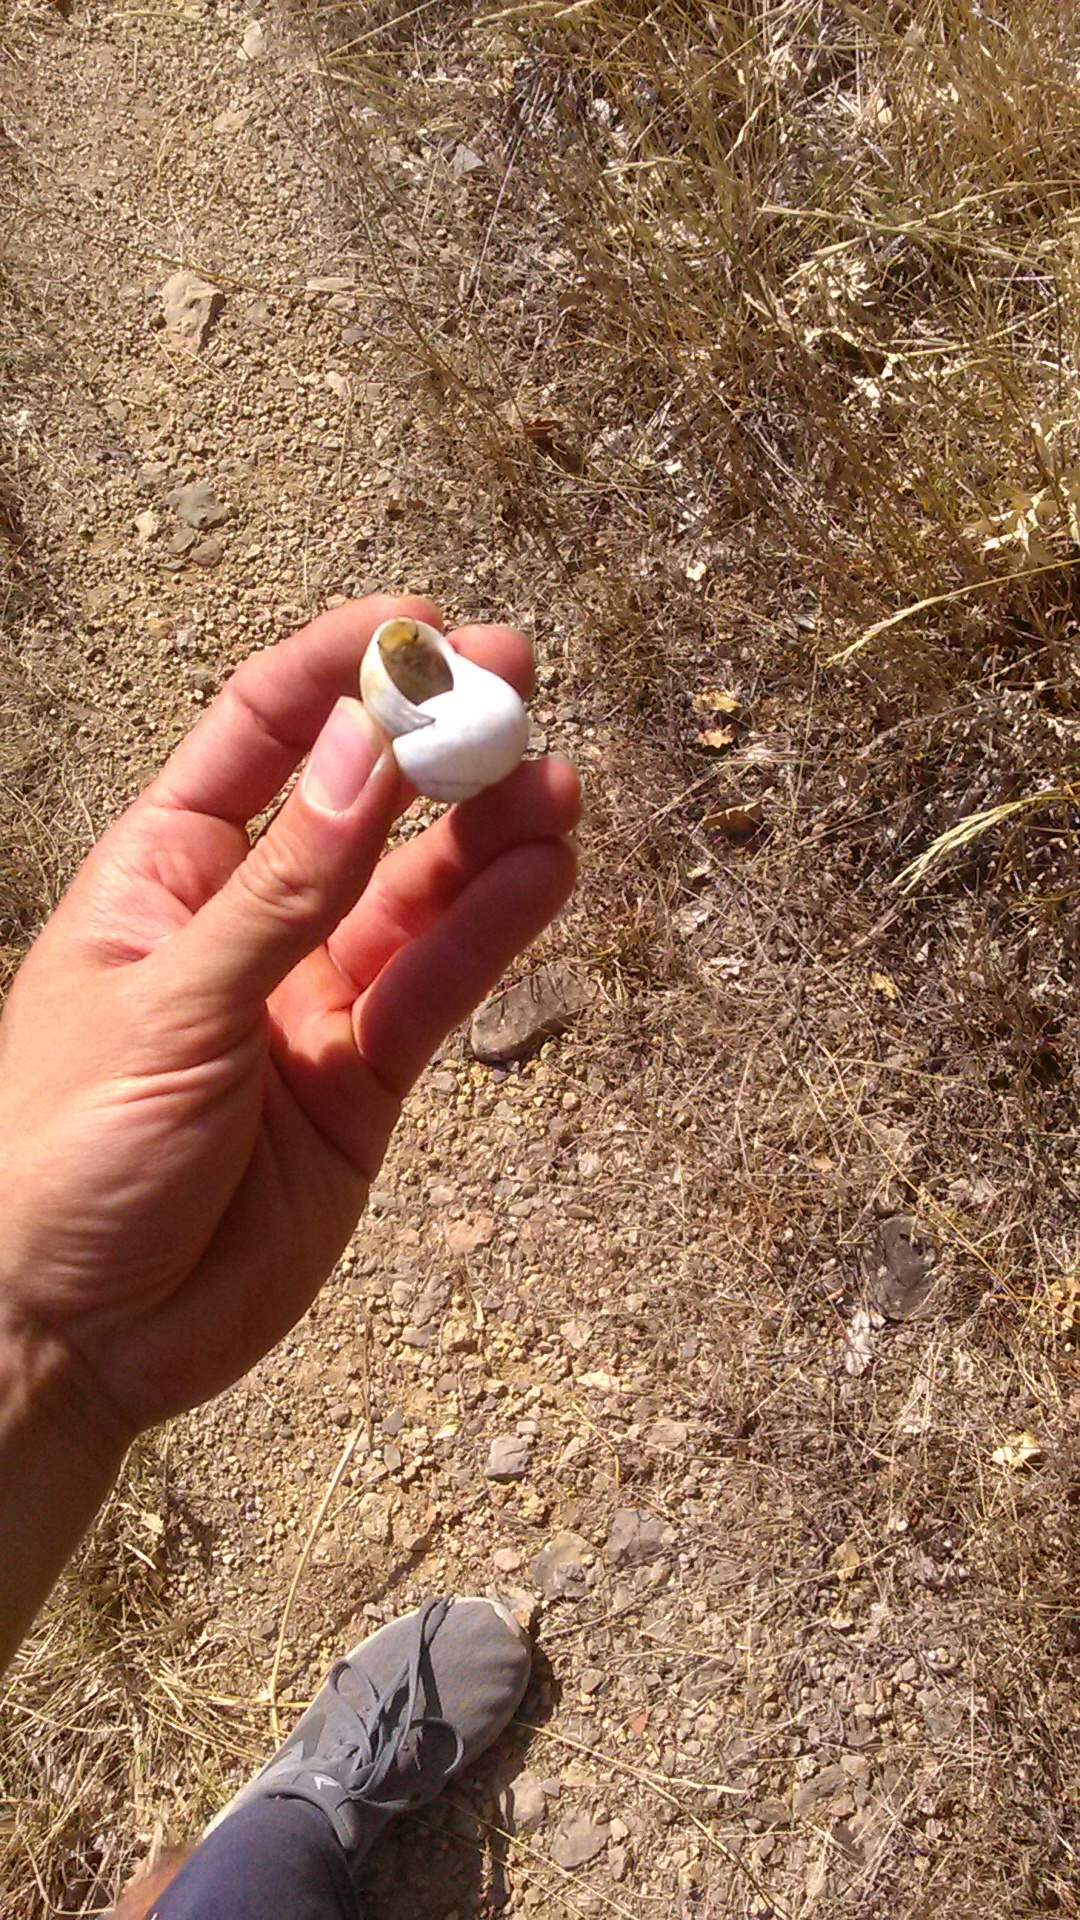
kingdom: Animalia
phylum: Mollusca
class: Gastropoda
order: Stylommatophora
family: Helicidae
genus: Helix
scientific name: Helix albescens
